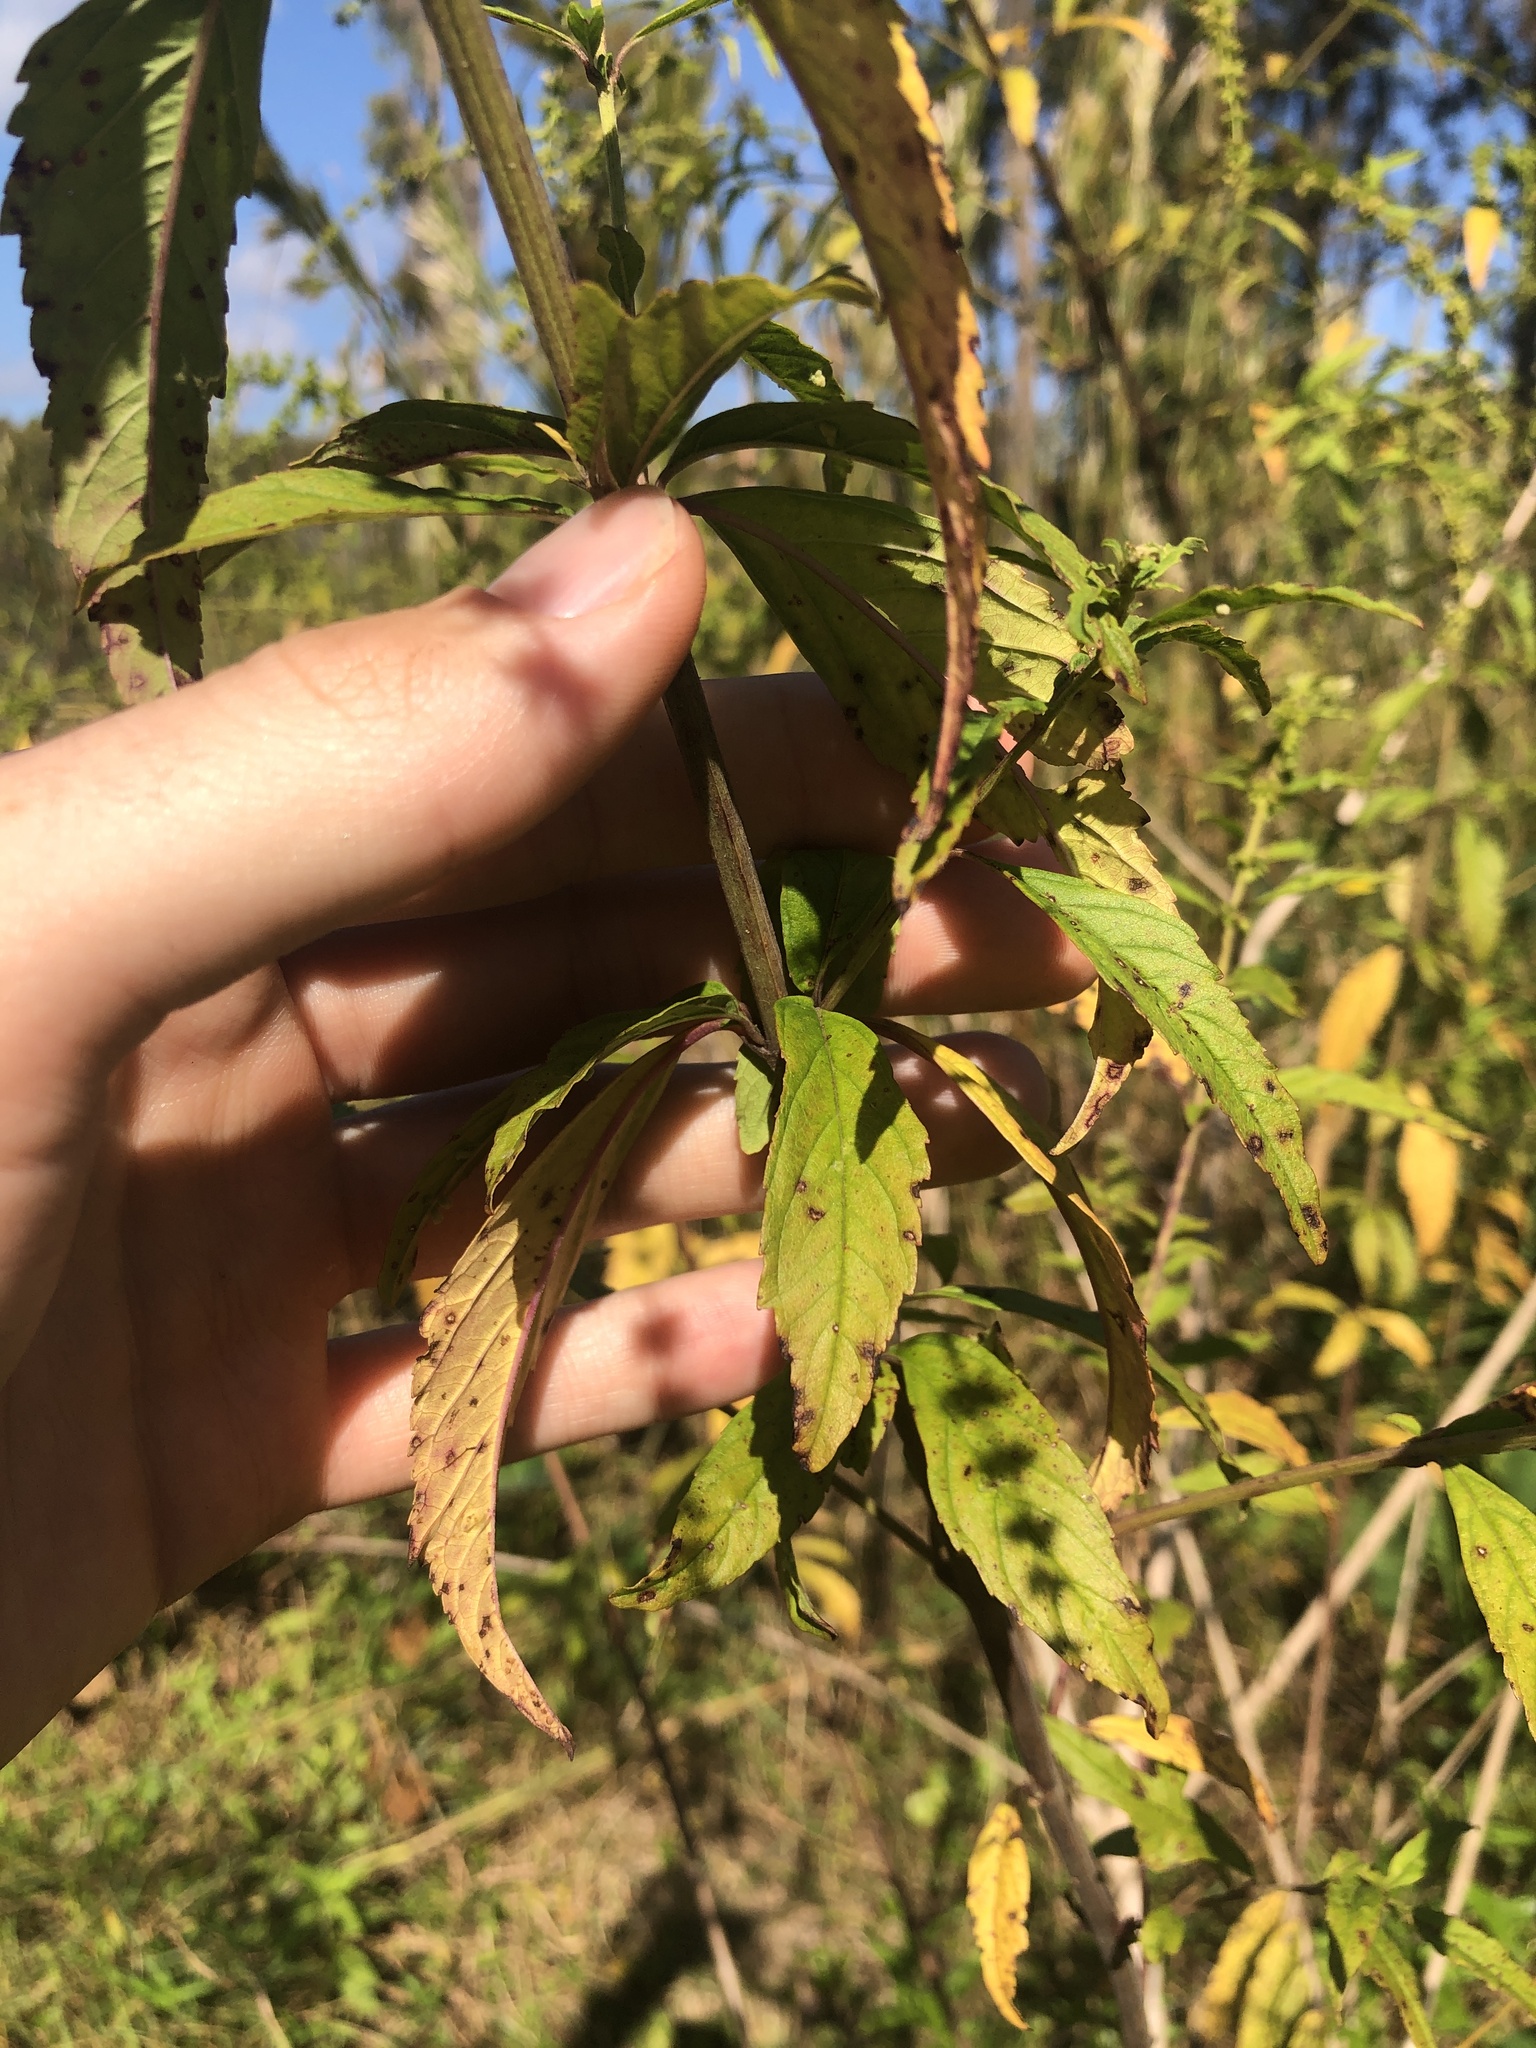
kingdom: Plantae
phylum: Tracheophyta
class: Magnoliopsida
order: Lamiales
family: Lamiaceae
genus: Condea
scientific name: Condea verticillata
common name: John charles
